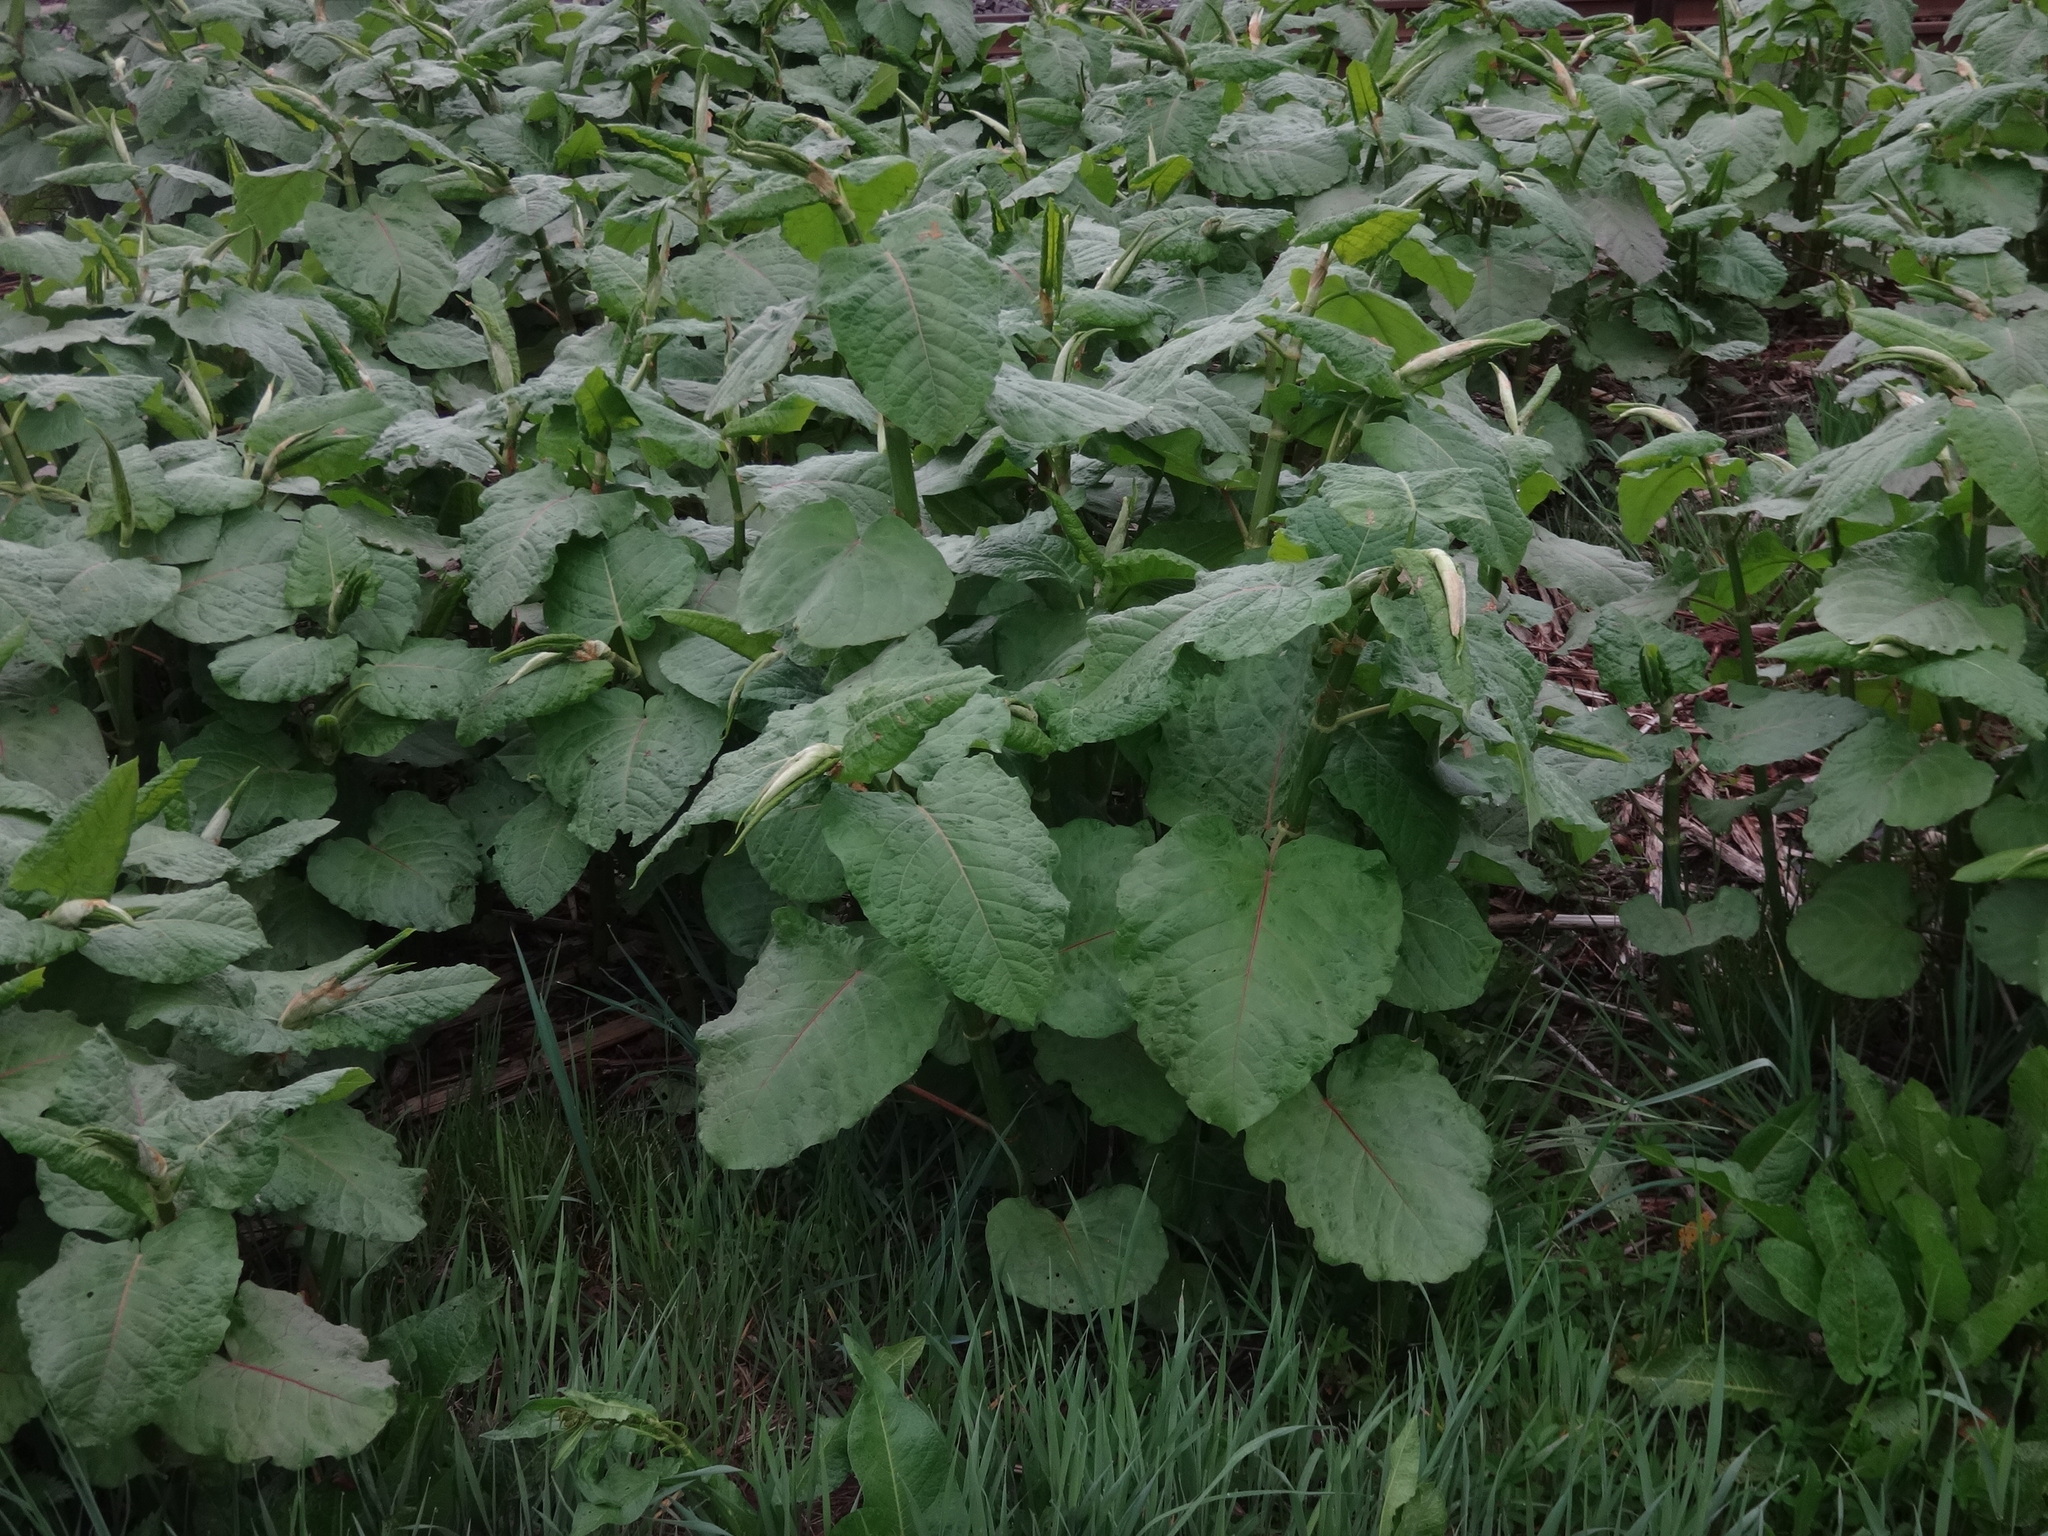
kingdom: Plantae
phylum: Tracheophyta
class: Magnoliopsida
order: Caryophyllales
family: Polygonaceae
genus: Reynoutria
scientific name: Reynoutria sachalinensis
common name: Giant knotweed
